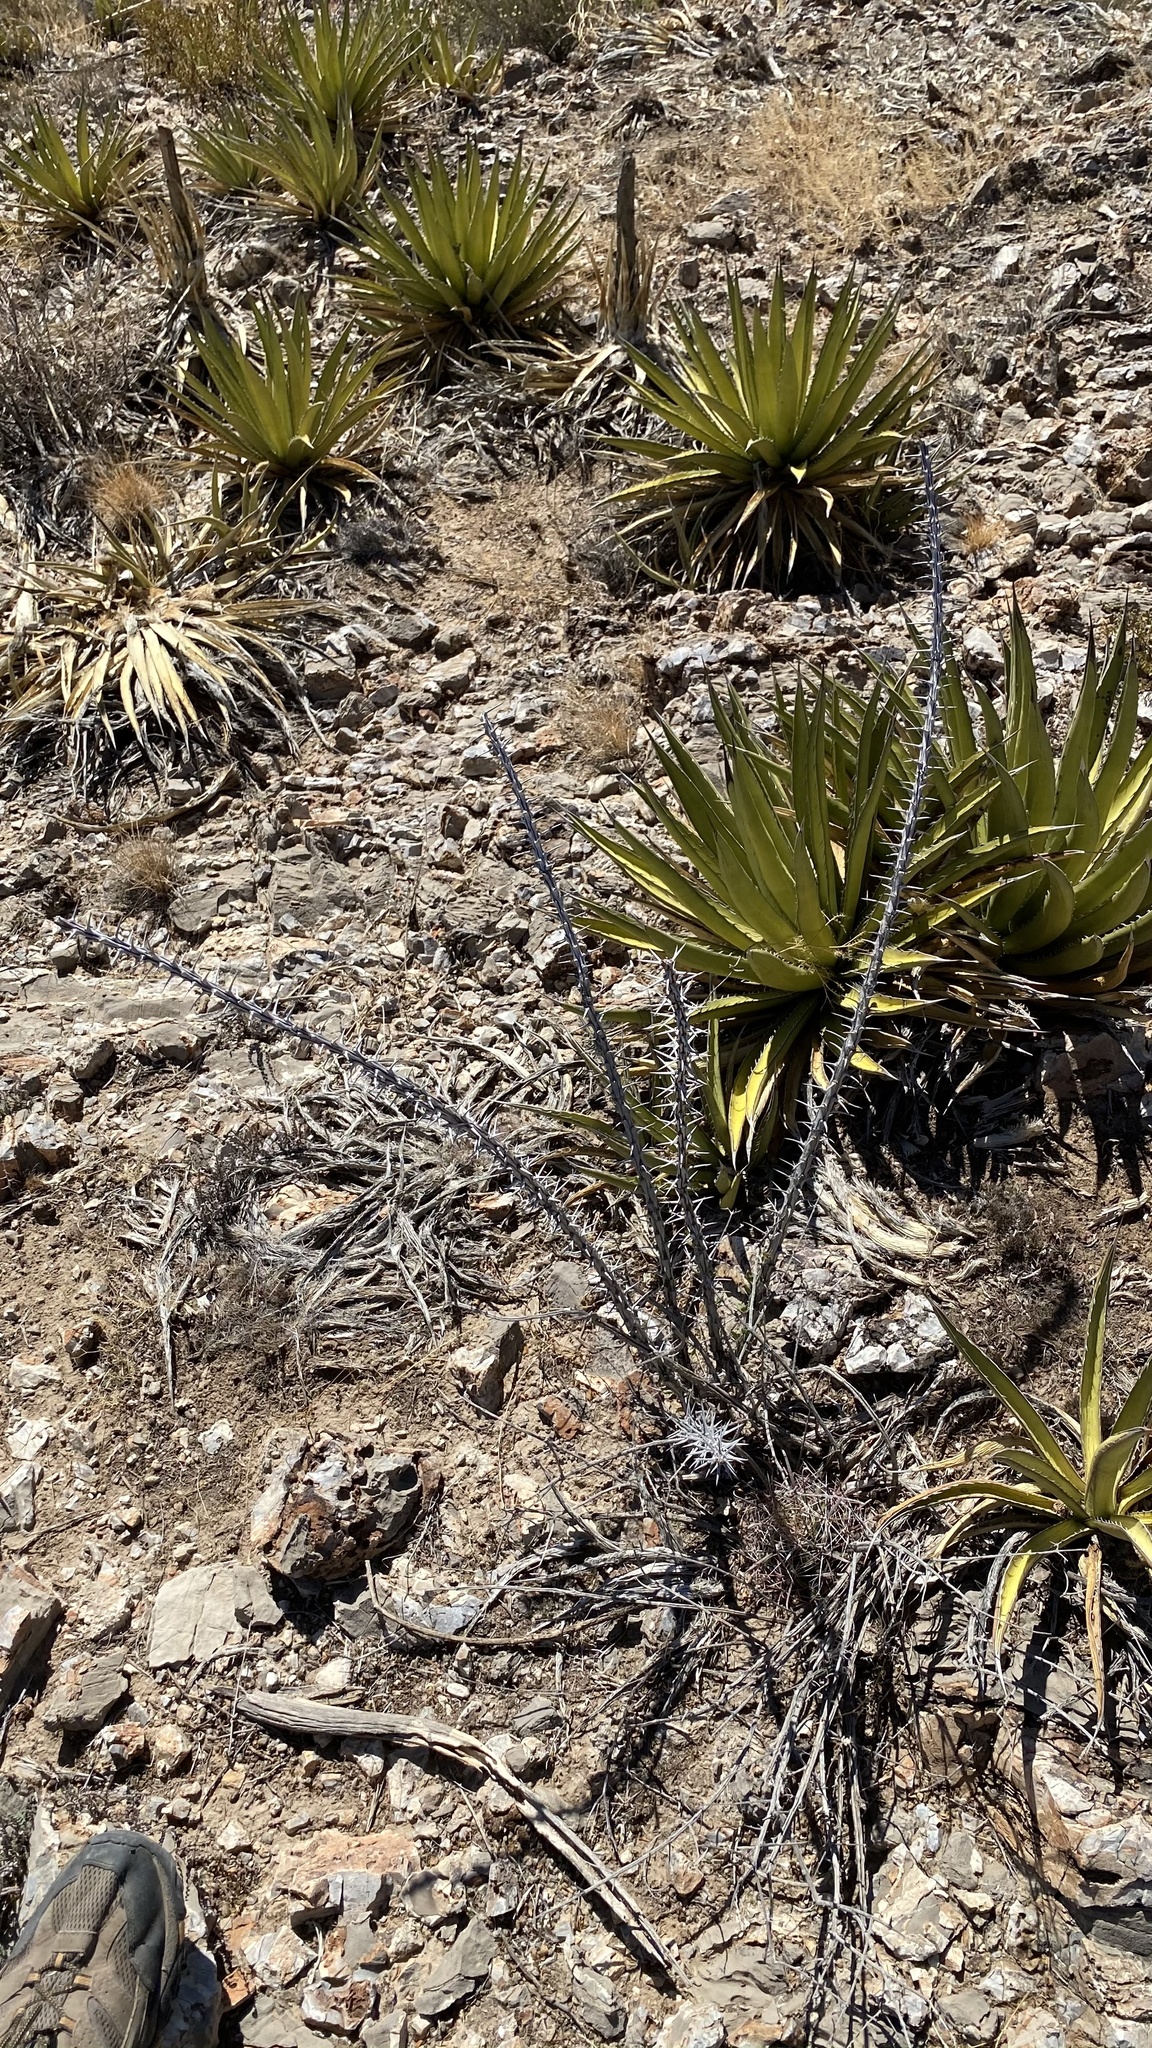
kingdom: Plantae
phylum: Tracheophyta
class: Magnoliopsida
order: Ericales
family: Fouquieriaceae
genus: Fouquieria
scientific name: Fouquieria splendens
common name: Vine-cactus
